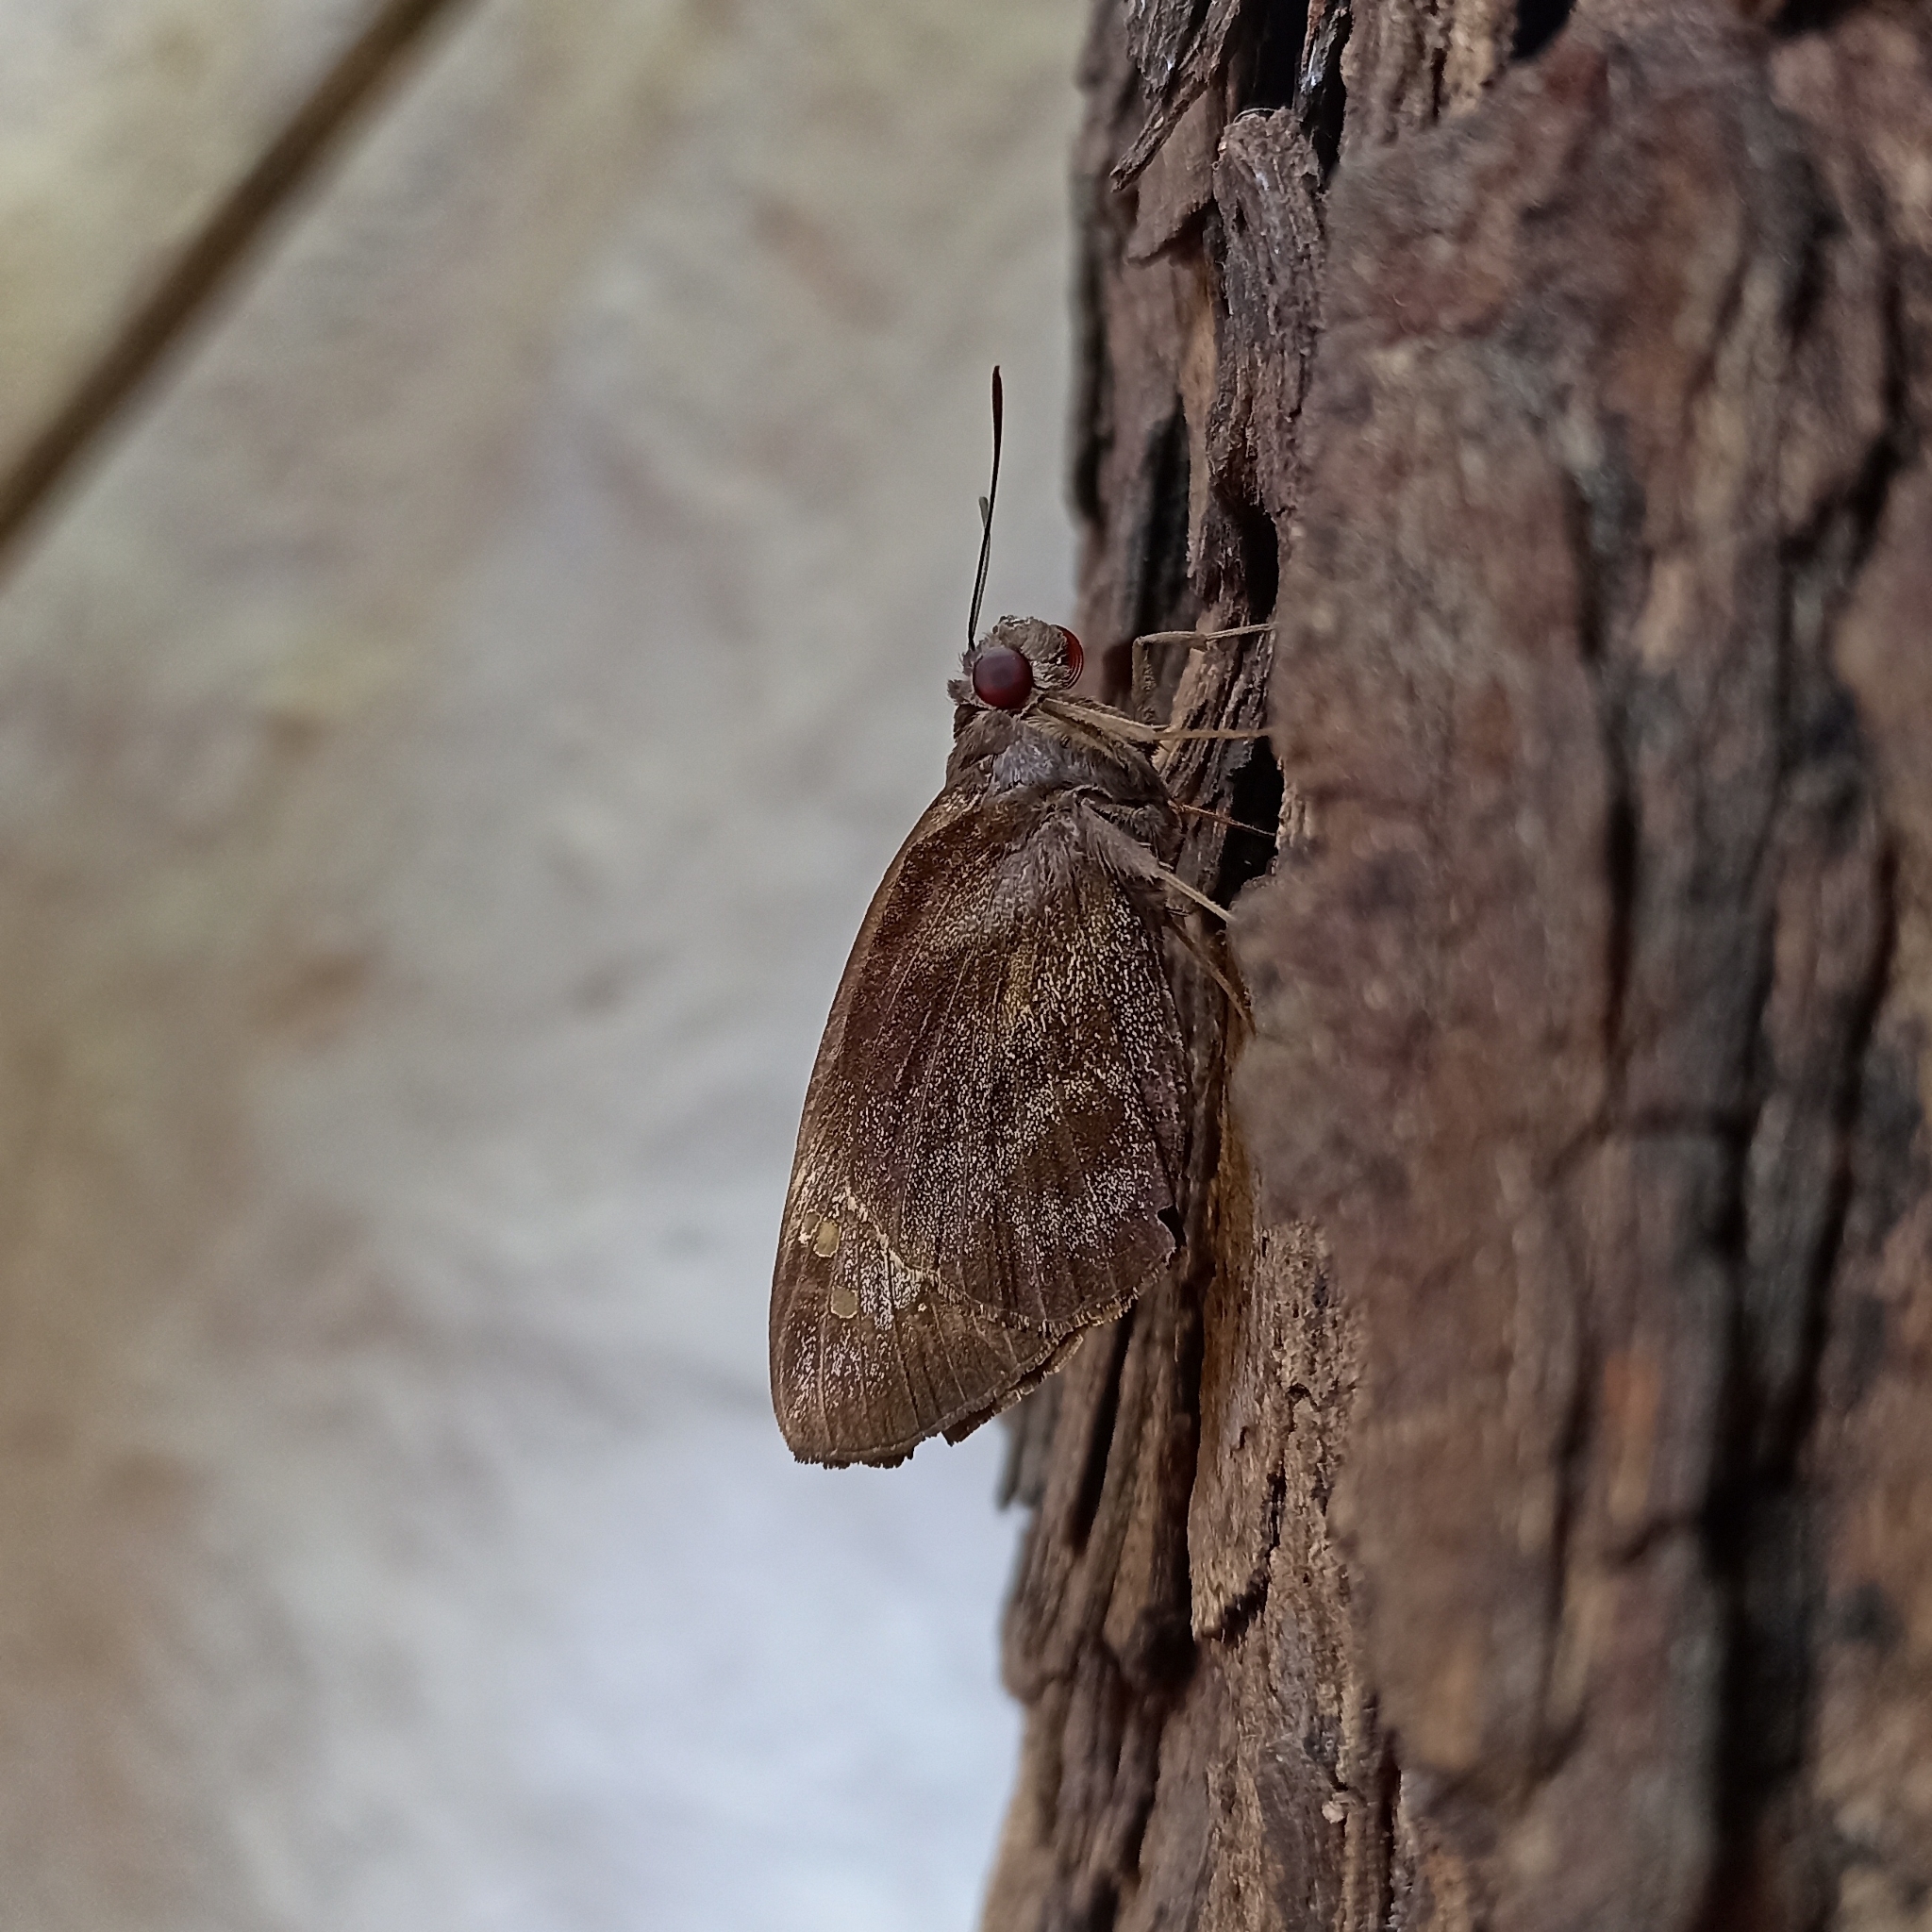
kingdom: Animalia
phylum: Arthropoda
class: Insecta
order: Lepidoptera
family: Hesperiidae
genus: Gangara
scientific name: Gangara thyrsis
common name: Giant redeye
